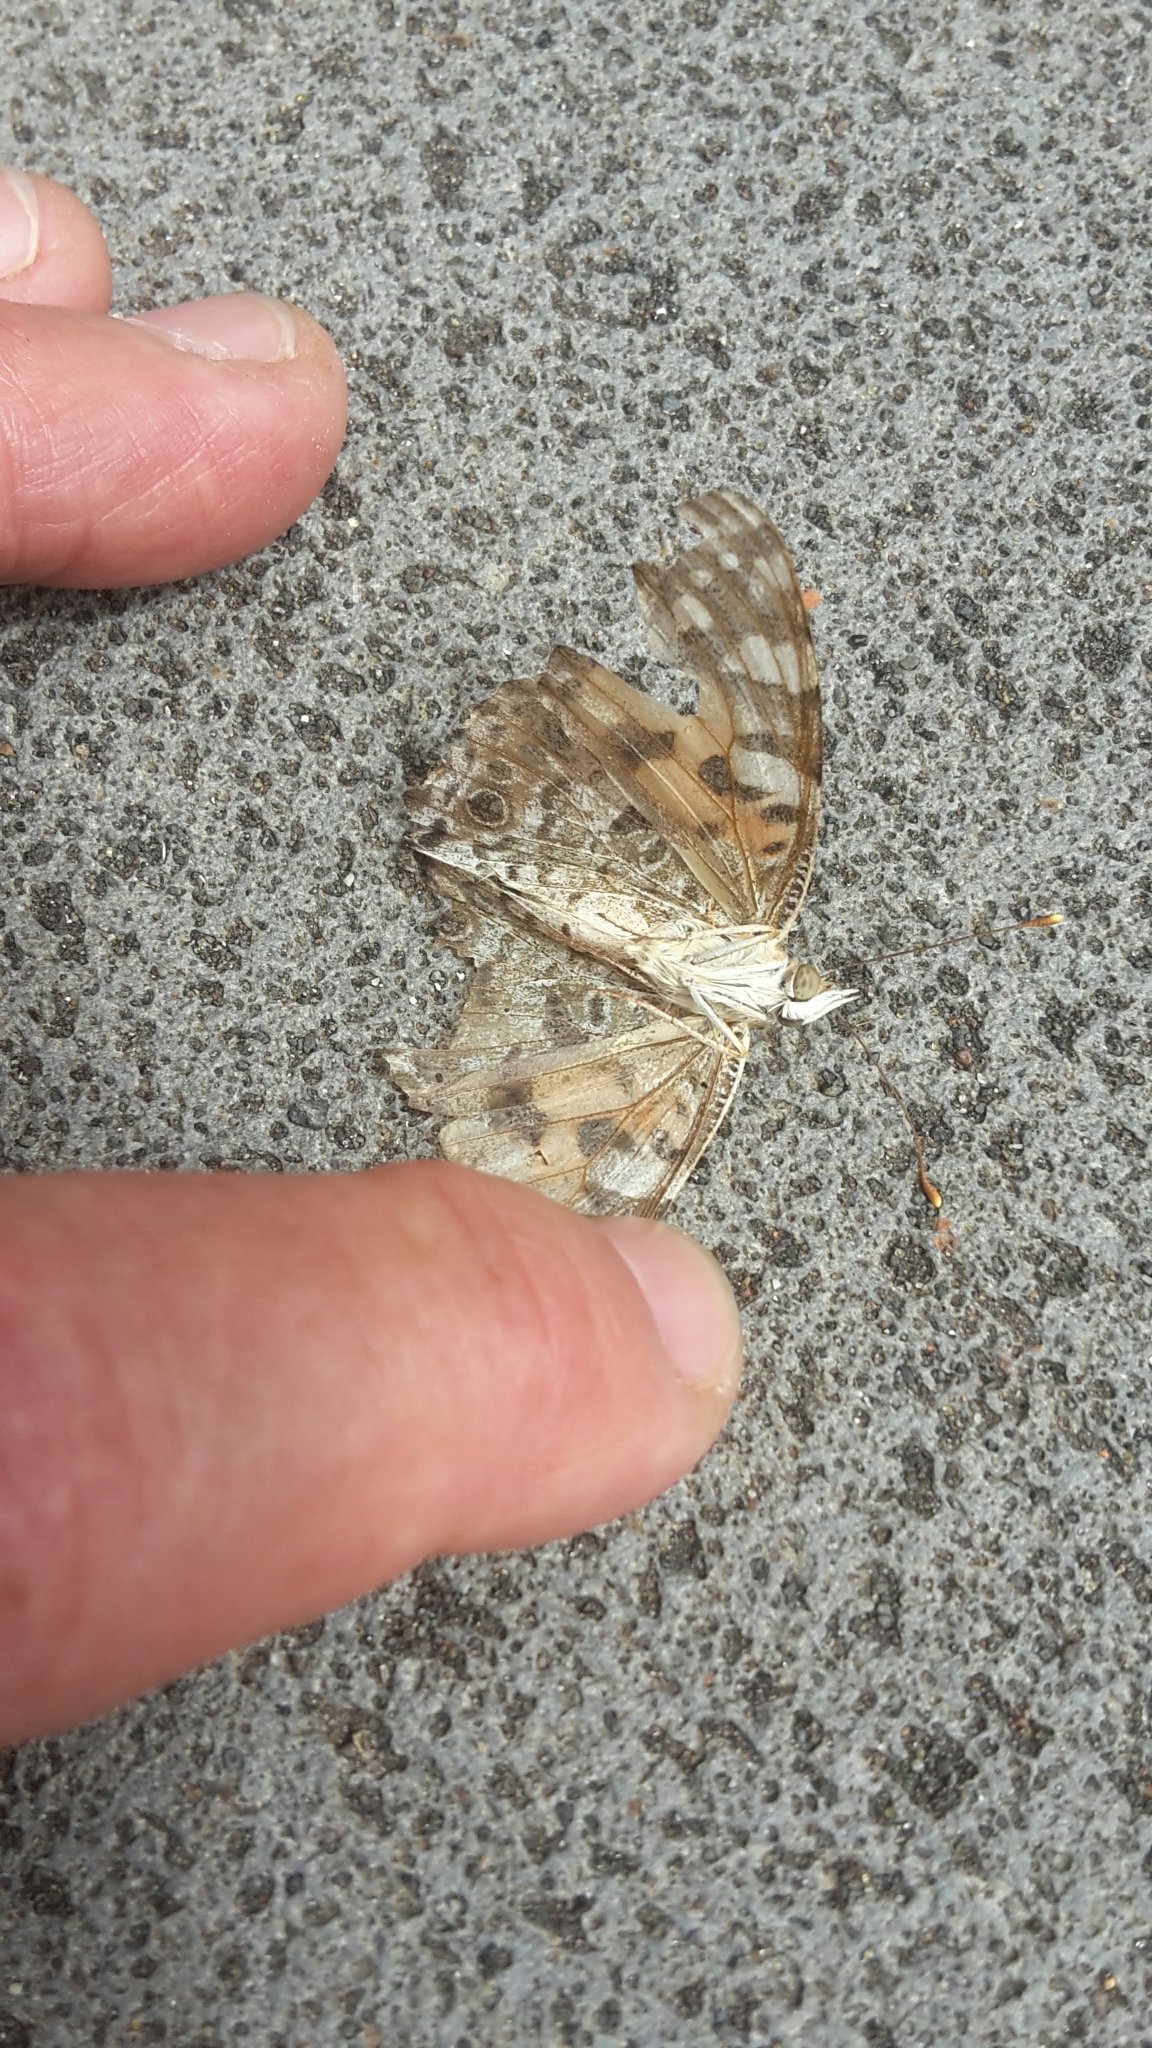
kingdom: Animalia
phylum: Arthropoda
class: Insecta
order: Lepidoptera
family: Nymphalidae
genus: Vanessa
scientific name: Vanessa cardui
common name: Painted lady
